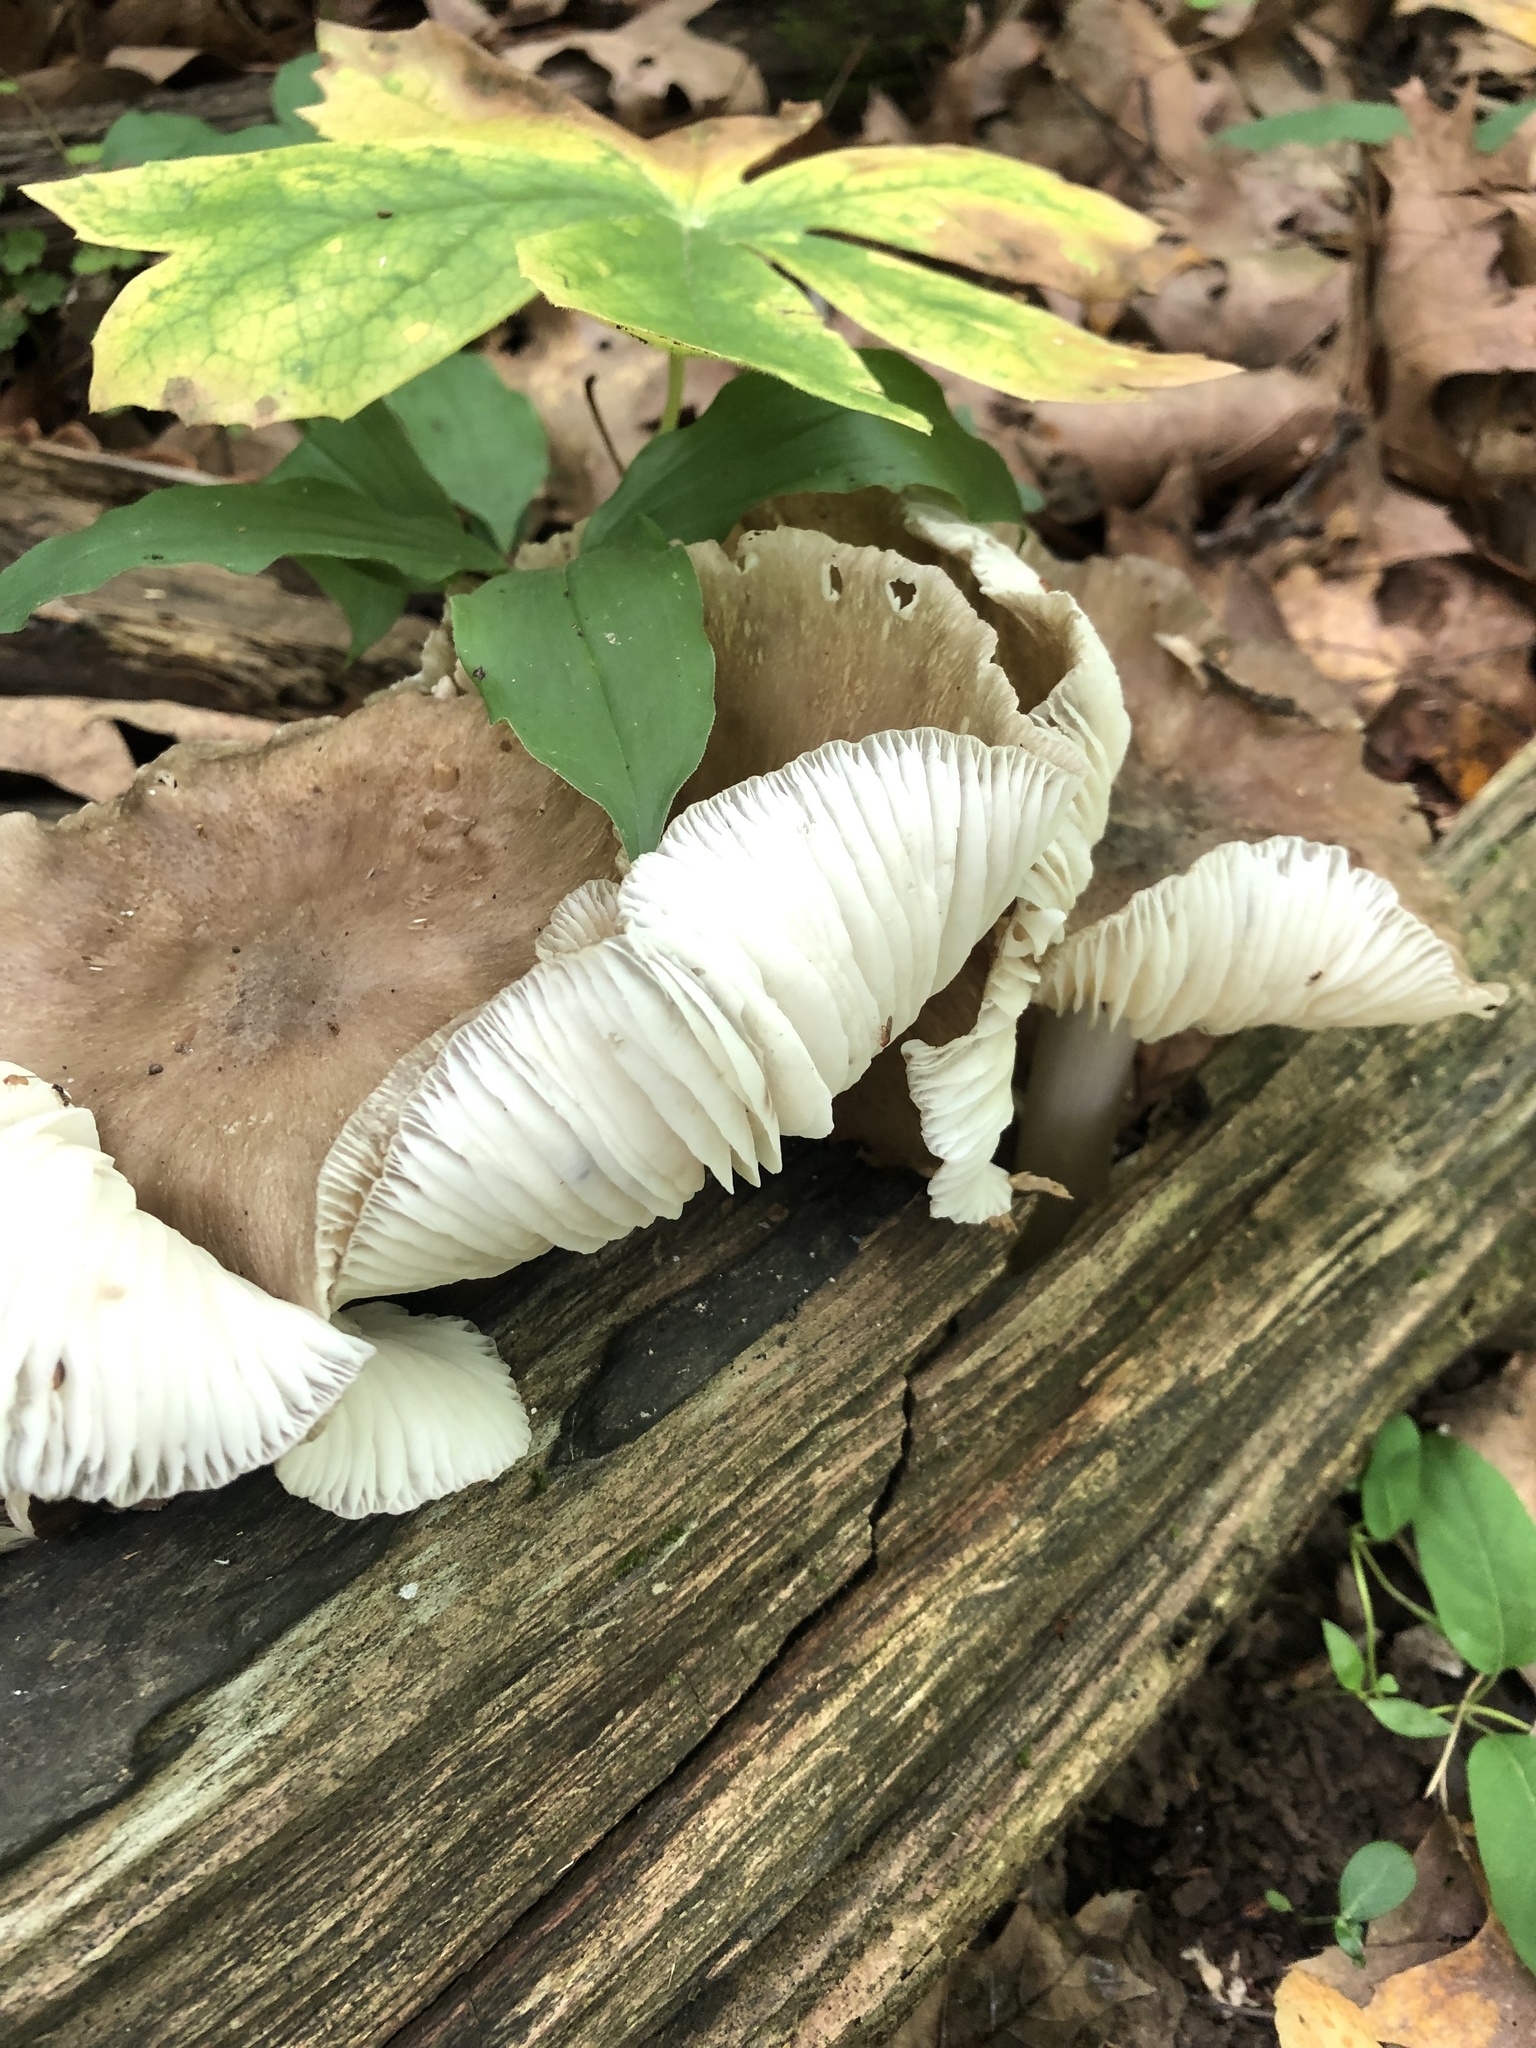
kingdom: Fungi
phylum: Basidiomycota
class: Agaricomycetes
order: Agaricales
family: Tricholomataceae
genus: Megacollybia
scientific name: Megacollybia rodmanii
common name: Eastern american platterful mushroom
